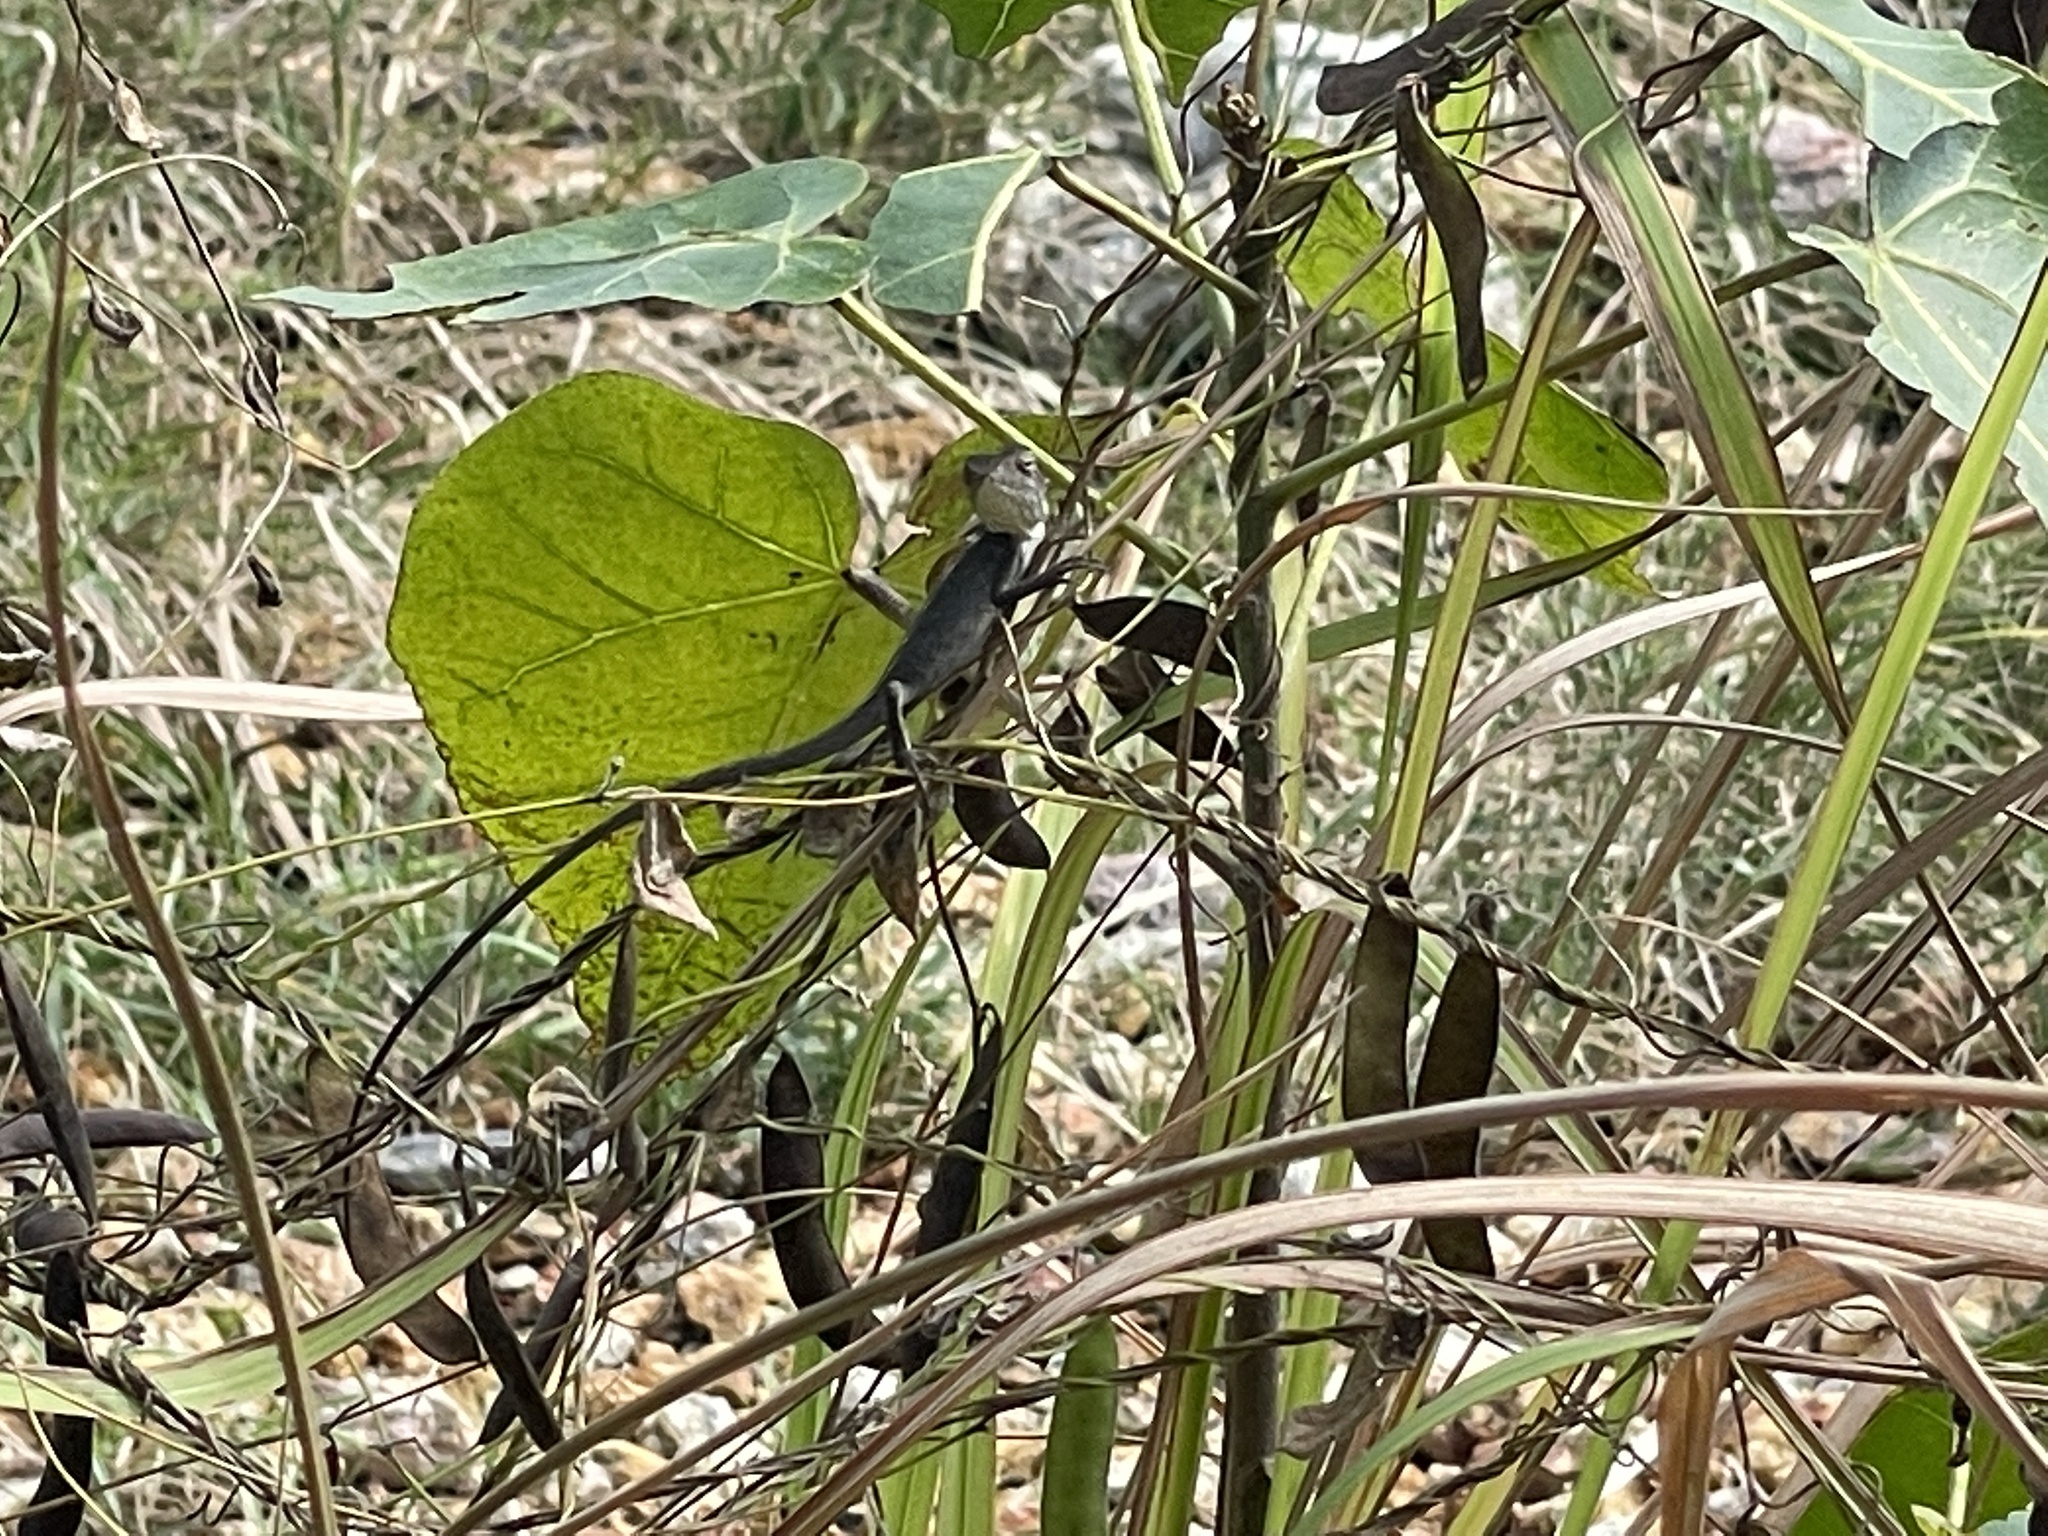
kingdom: Animalia
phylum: Chordata
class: Squamata
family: Agamidae
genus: Calotes
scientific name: Calotes versicolor
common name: Oriental garden lizard
